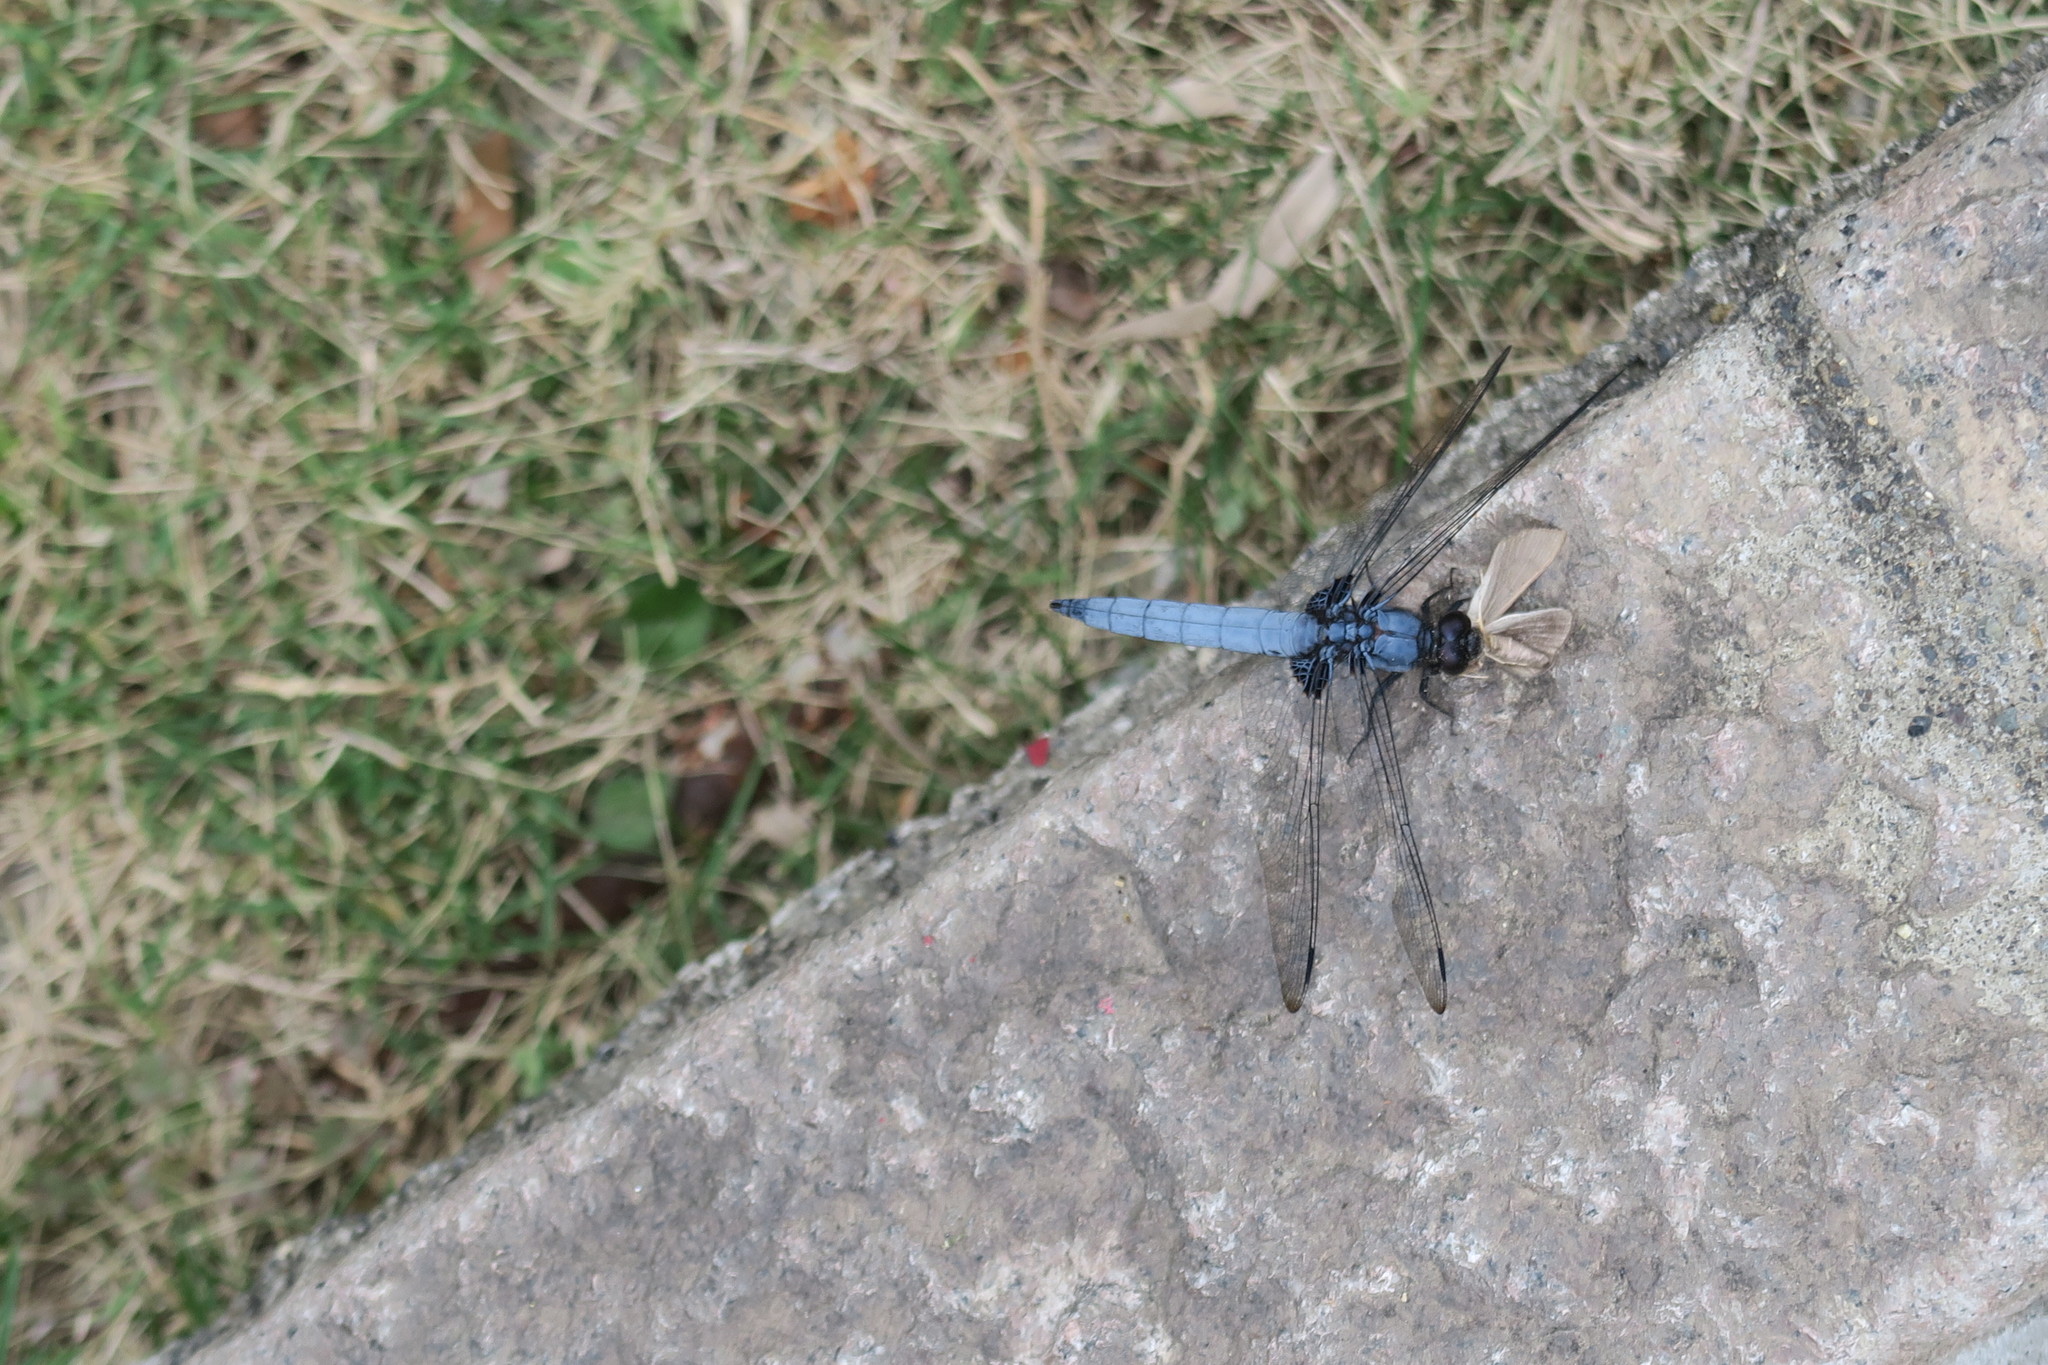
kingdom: Animalia
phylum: Arthropoda
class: Insecta
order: Odonata
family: Libellulidae
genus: Orthetrum
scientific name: Orthetrum melania
